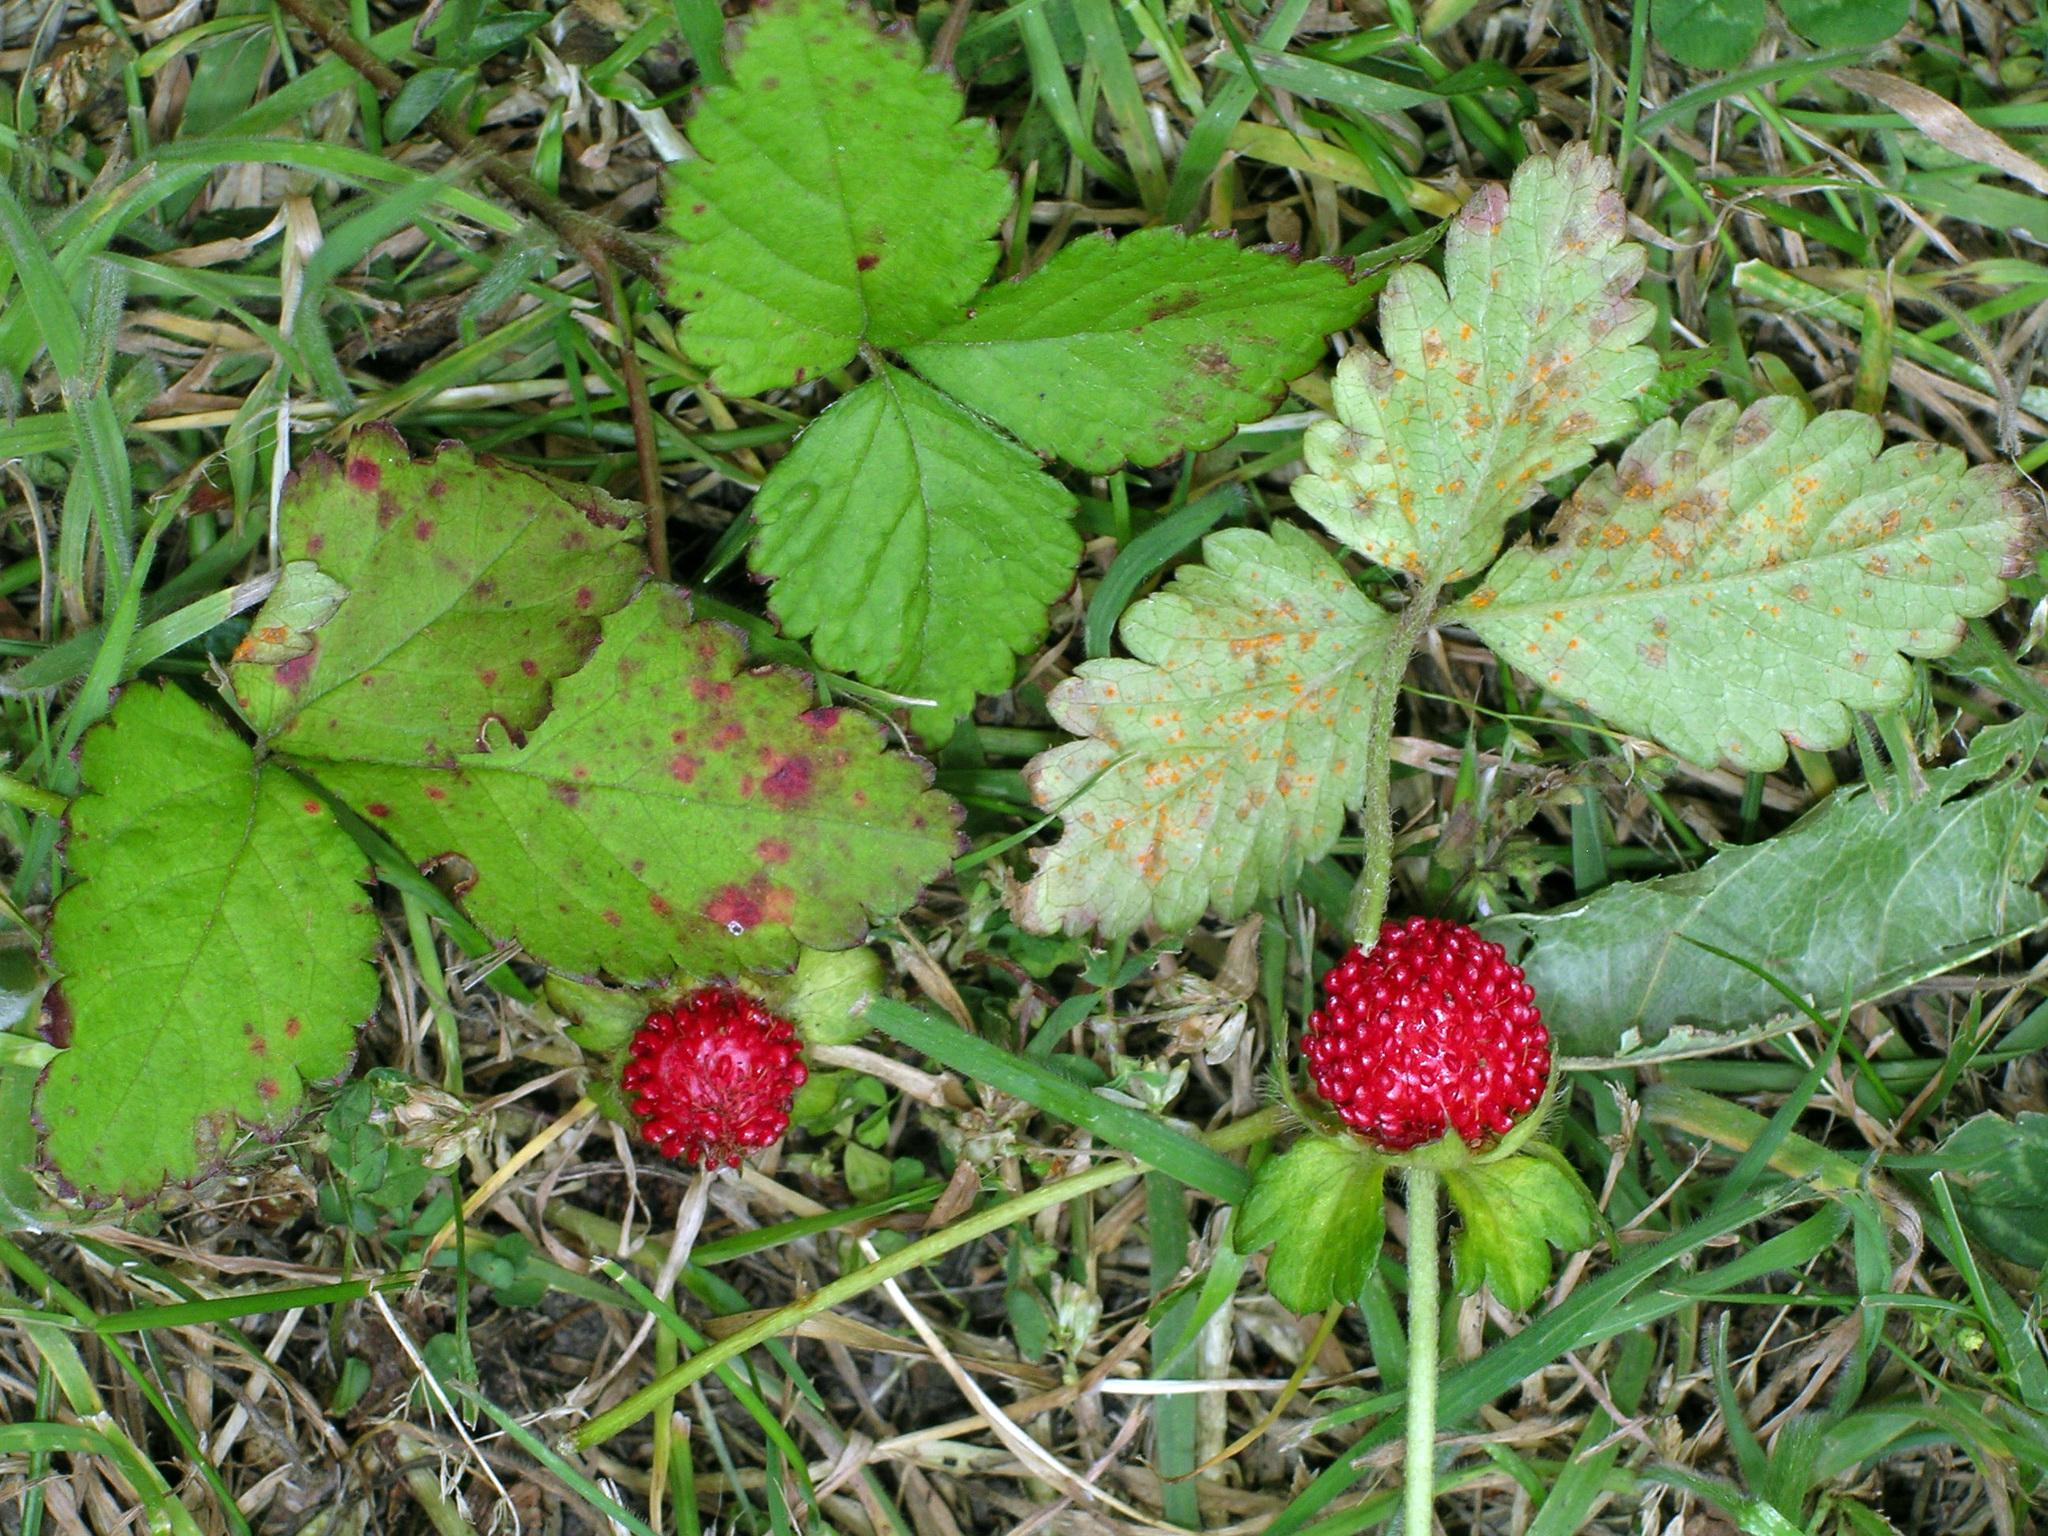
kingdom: Fungi
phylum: Basidiomycota
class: Pucciniomycetes
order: Pucciniales
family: Phragmidiaceae
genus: Phragmidium
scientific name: Phragmidium mexicanum
